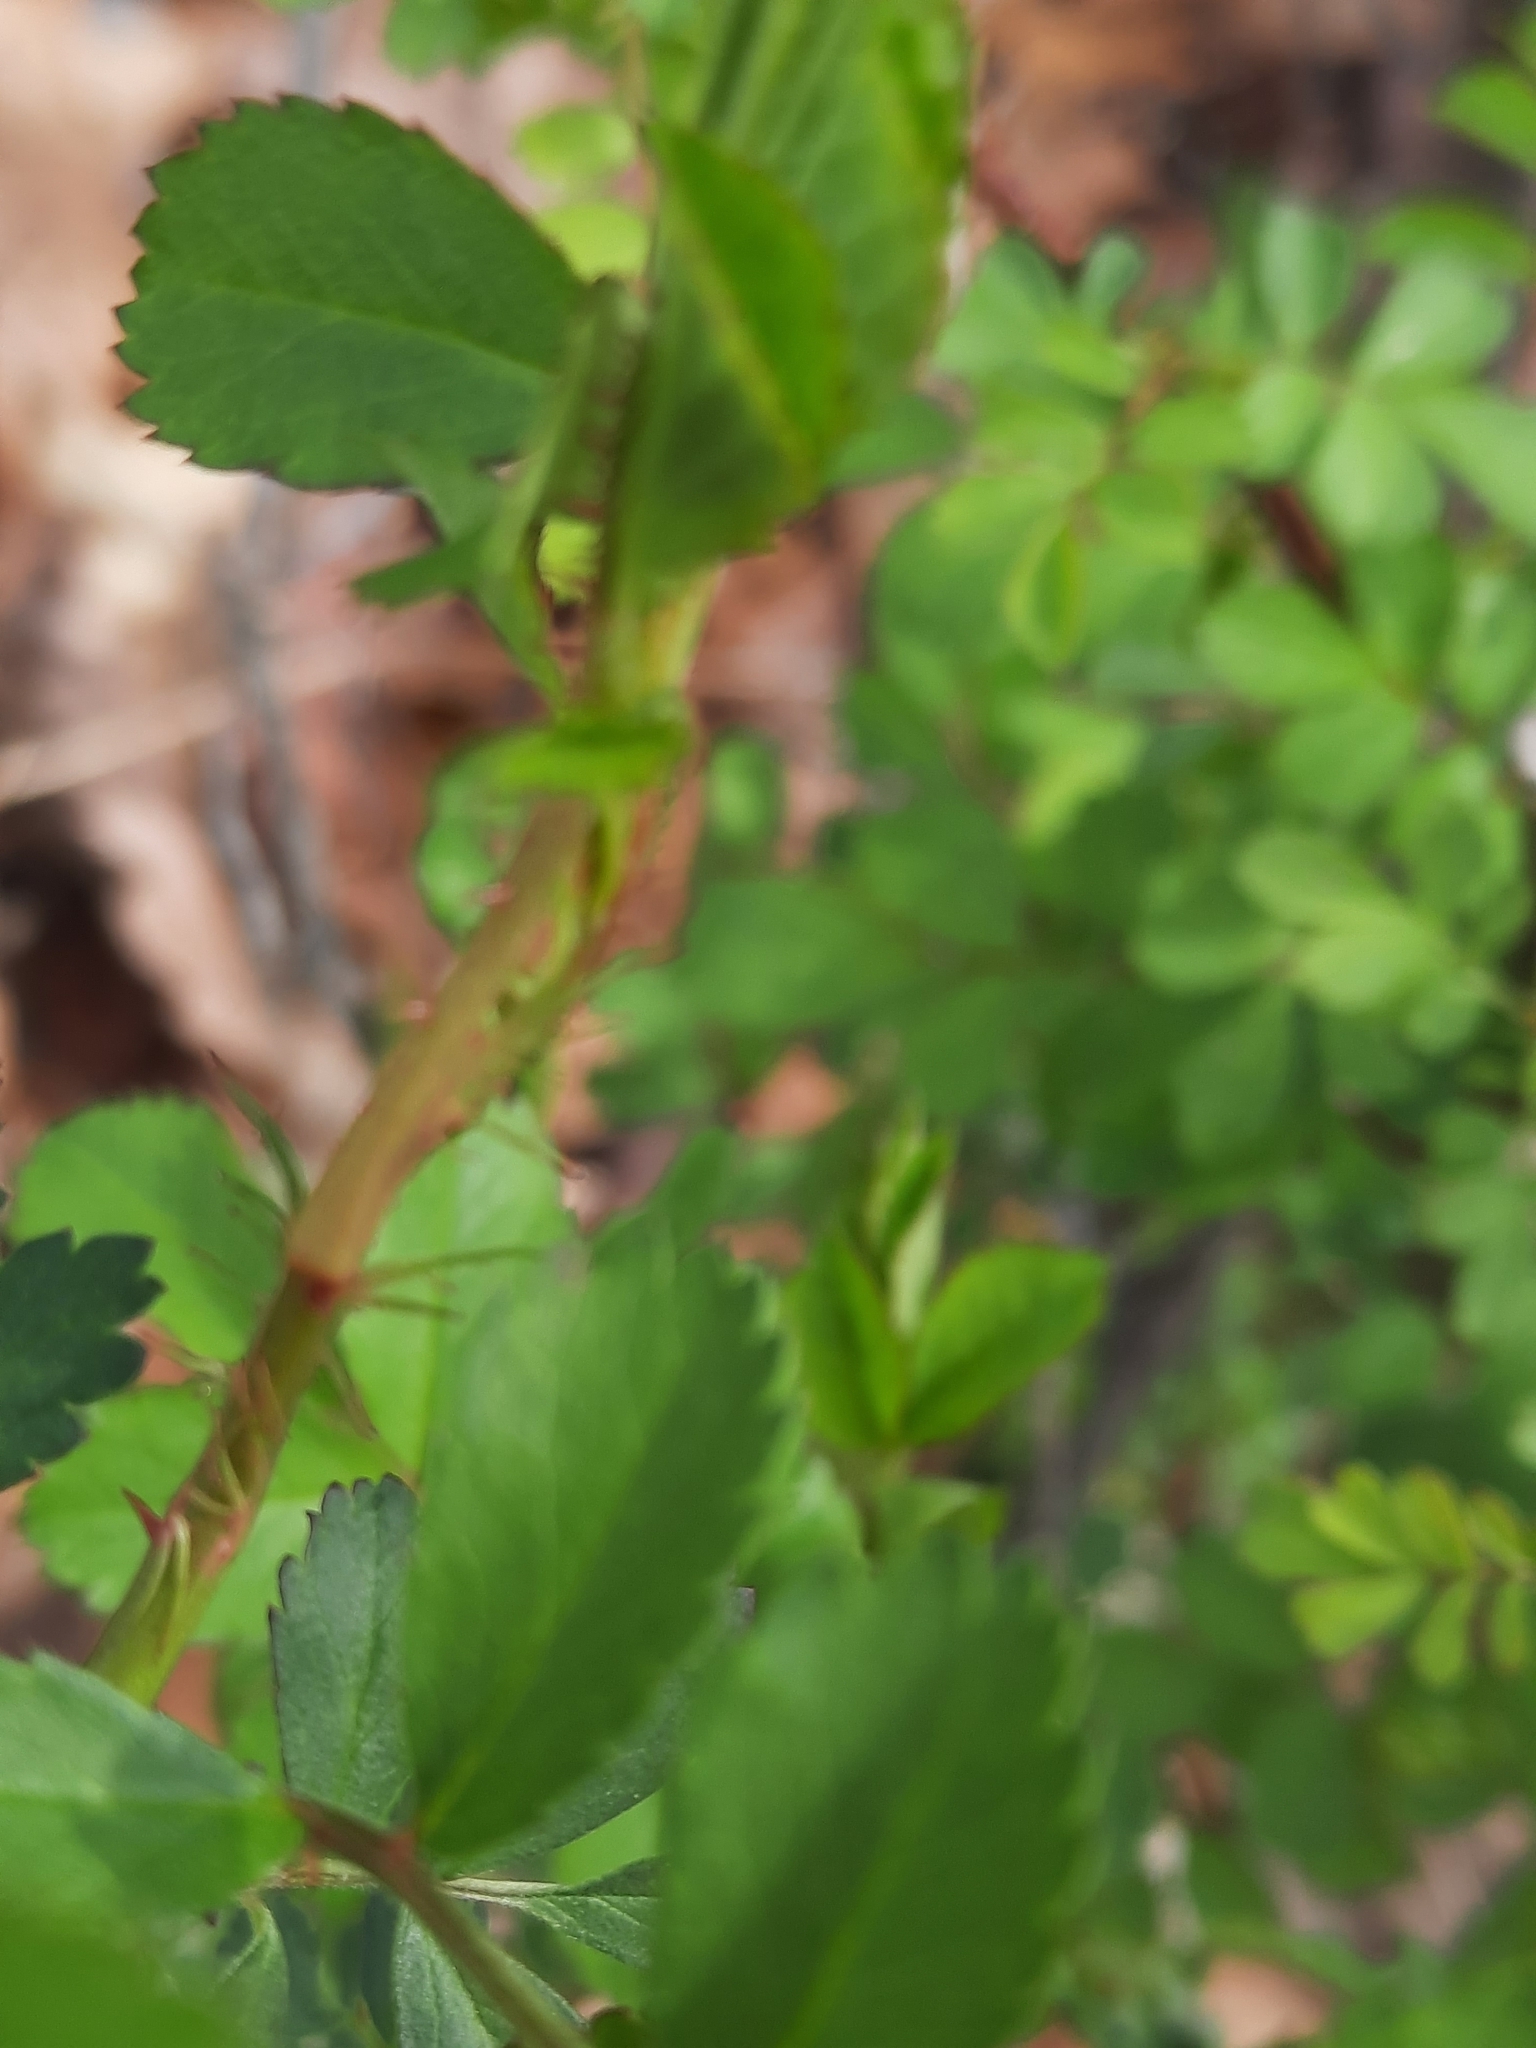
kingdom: Plantae
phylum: Tracheophyta
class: Magnoliopsida
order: Rosales
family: Rosaceae
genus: Rosa
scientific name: Rosa multiflora
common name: Multiflora rose
